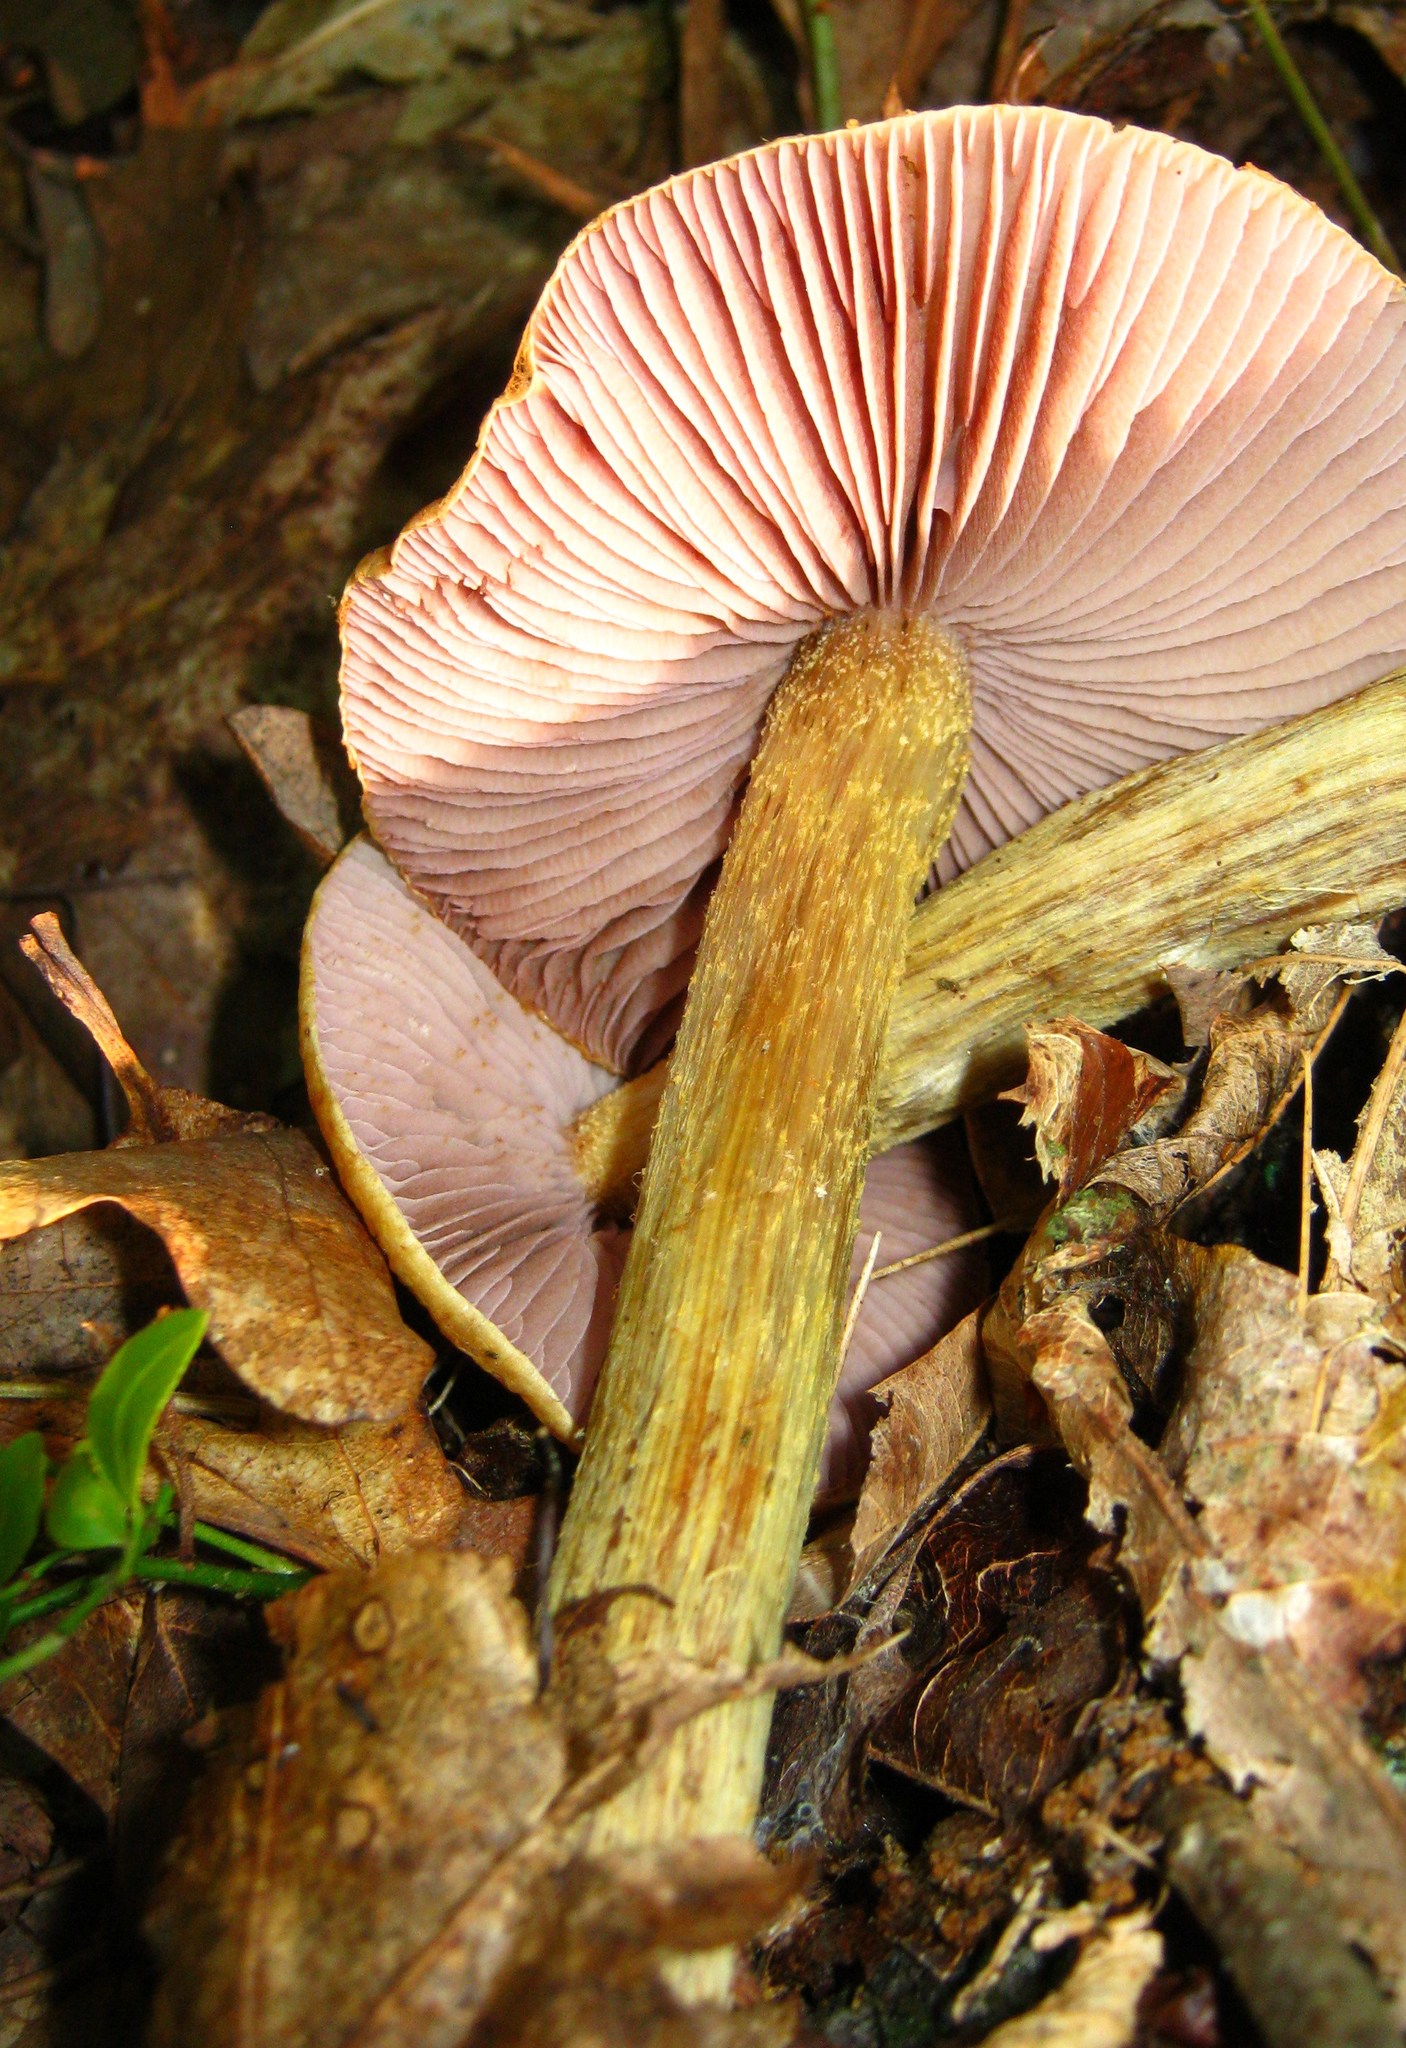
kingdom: Fungi
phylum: Basidiomycota
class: Agaricomycetes
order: Agaricales
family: Cortinariaceae
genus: Cortinarius
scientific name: Cortinarius corrugatus
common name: Wrinkled cortinarius
